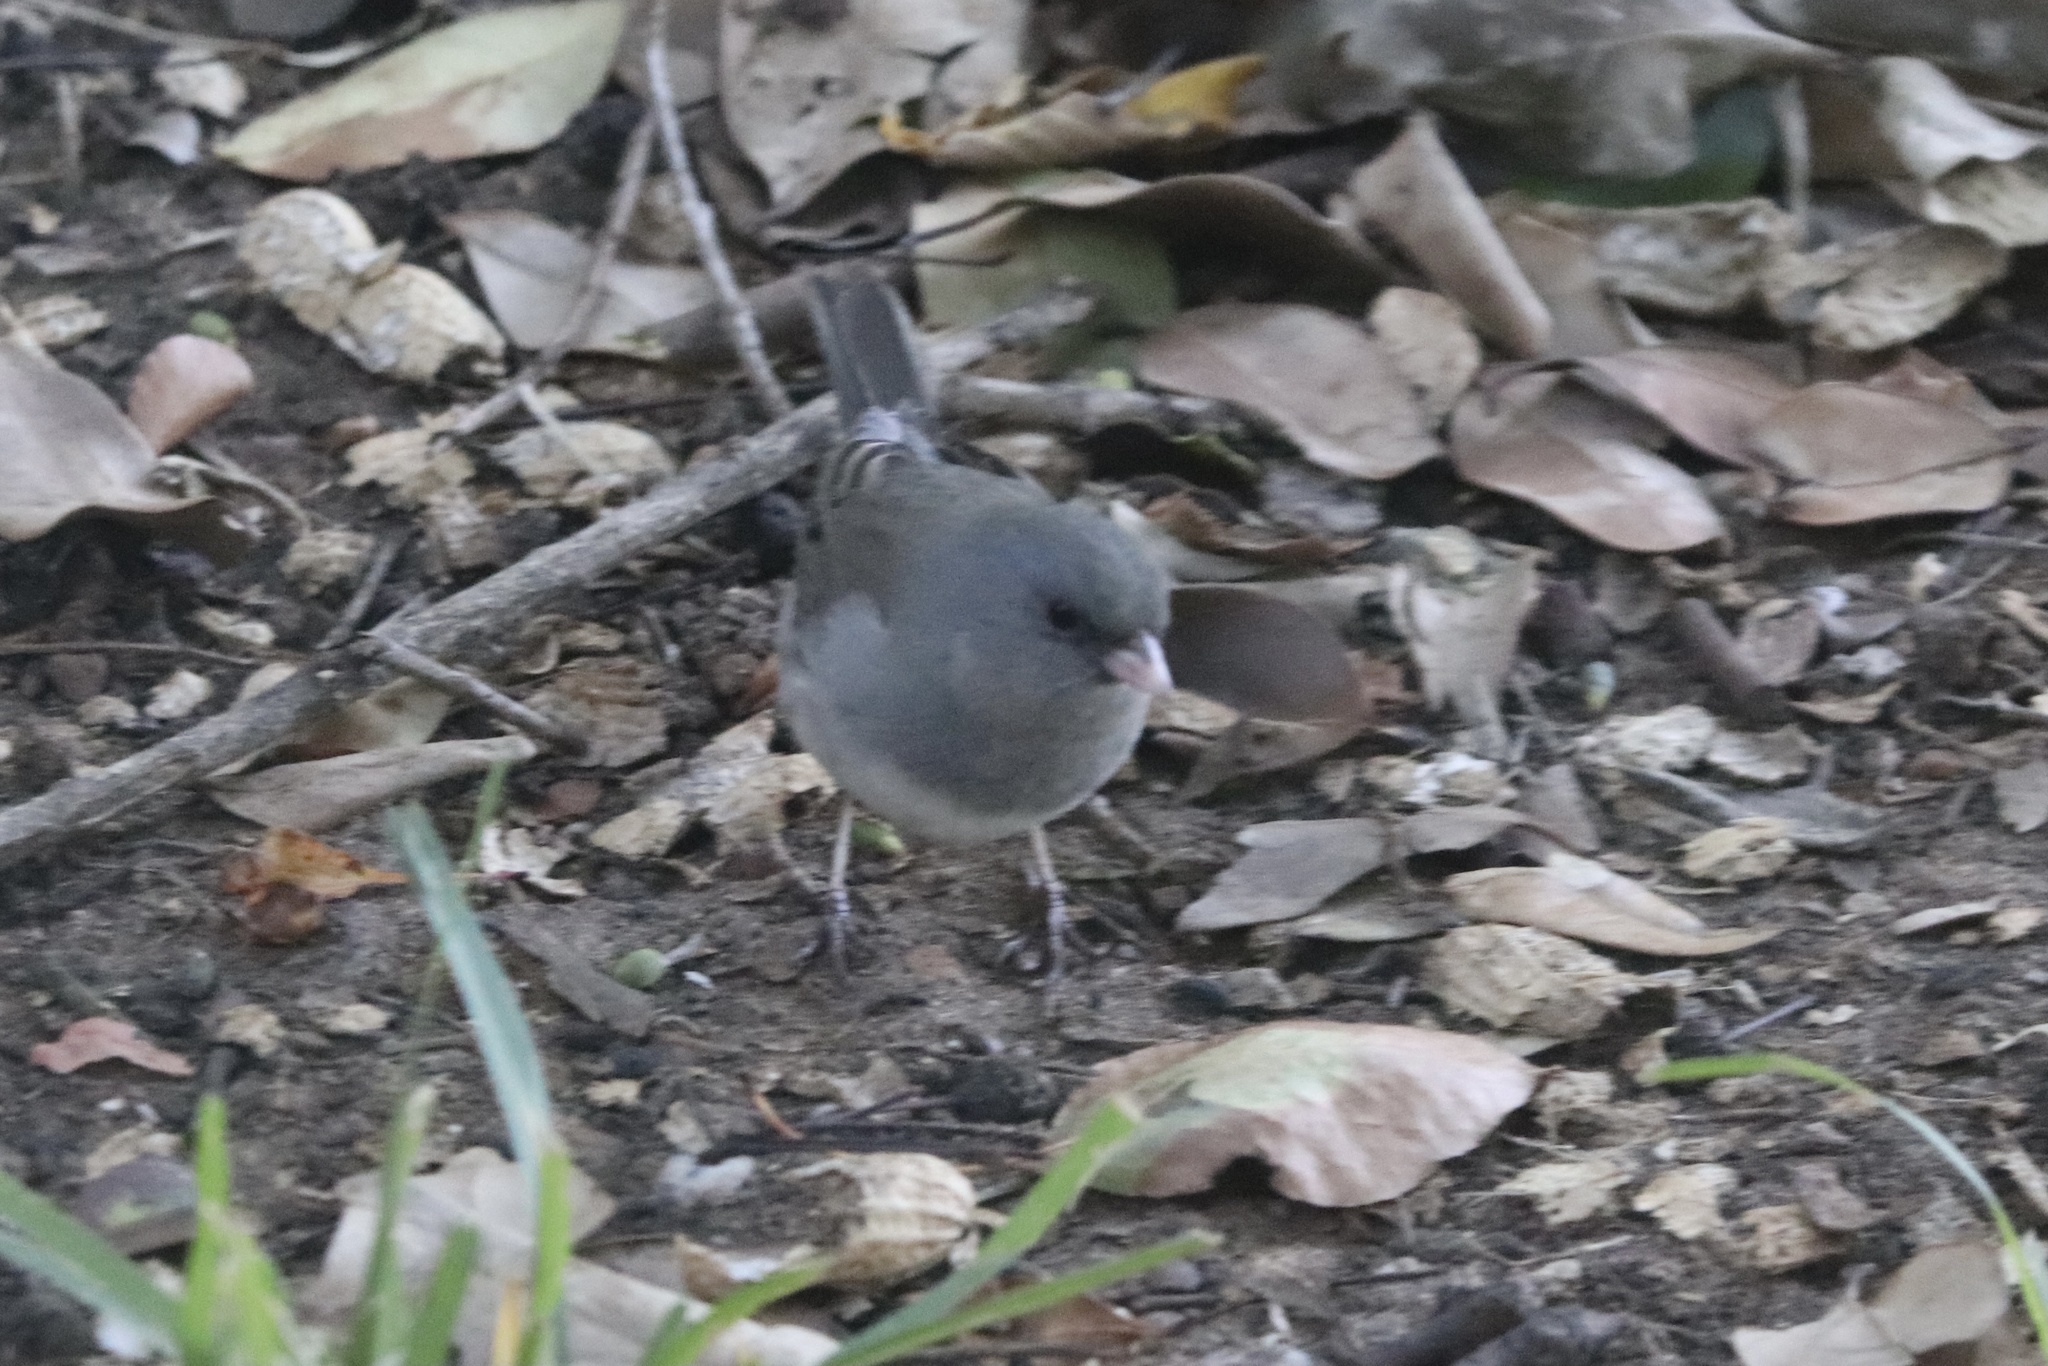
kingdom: Animalia
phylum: Chordata
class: Aves
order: Passeriformes
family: Passerellidae
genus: Junco
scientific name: Junco hyemalis
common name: Dark-eyed junco
